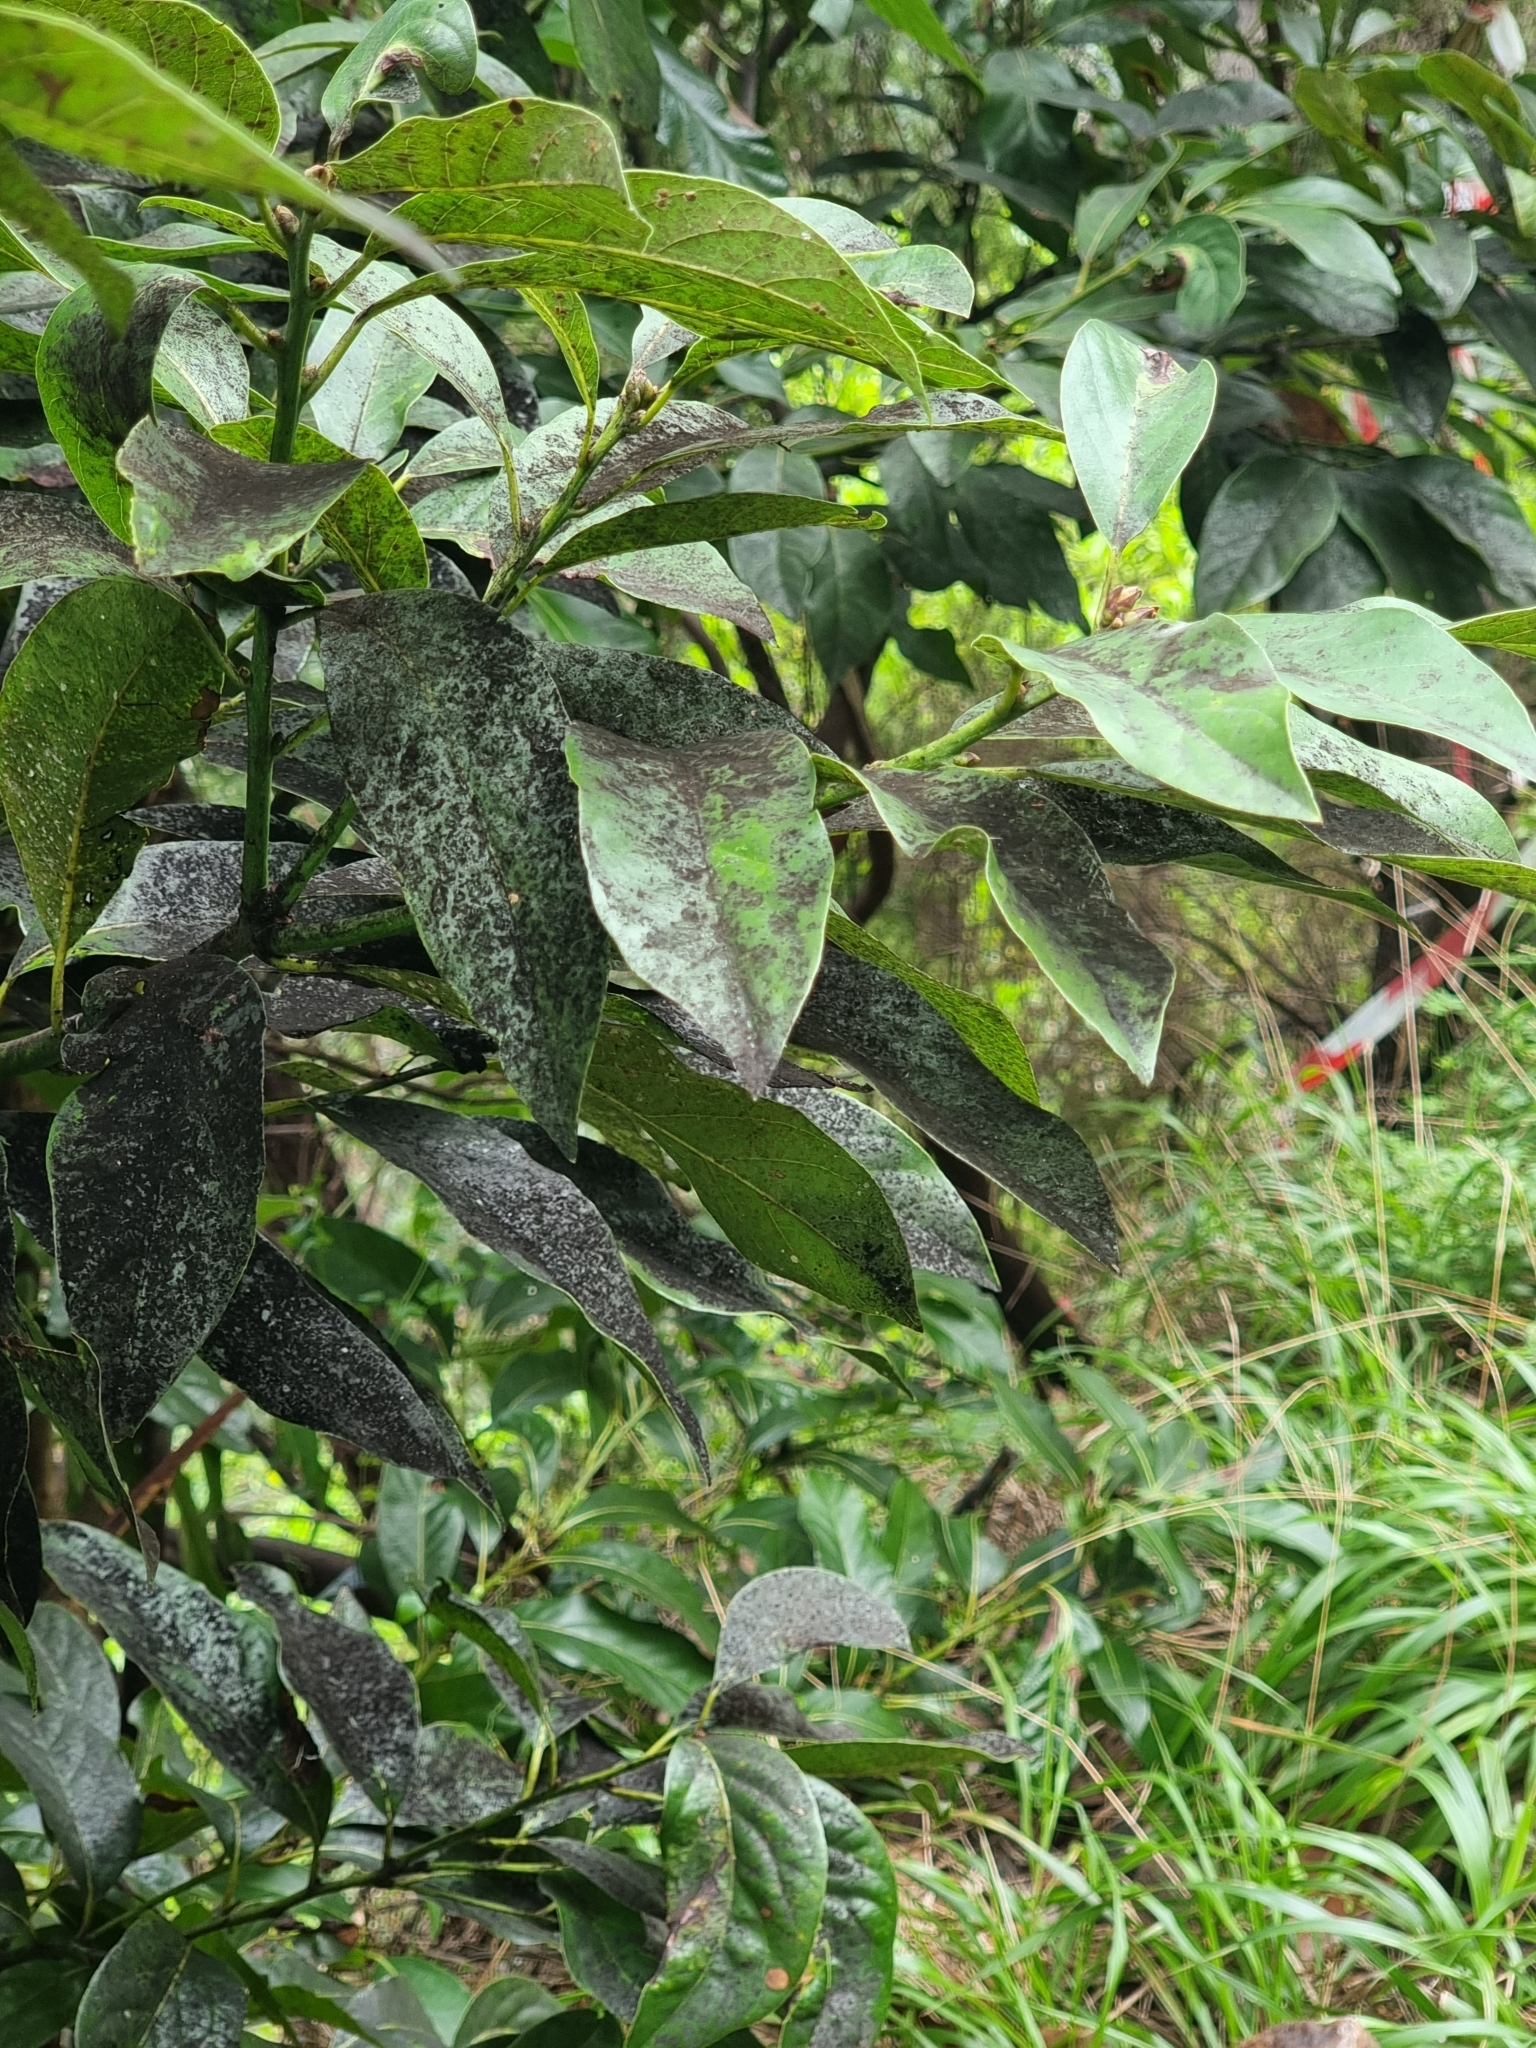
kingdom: Plantae
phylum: Tracheophyta
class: Magnoliopsida
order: Laurales
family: Lauraceae
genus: Laurus
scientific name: Laurus novocanariensis
